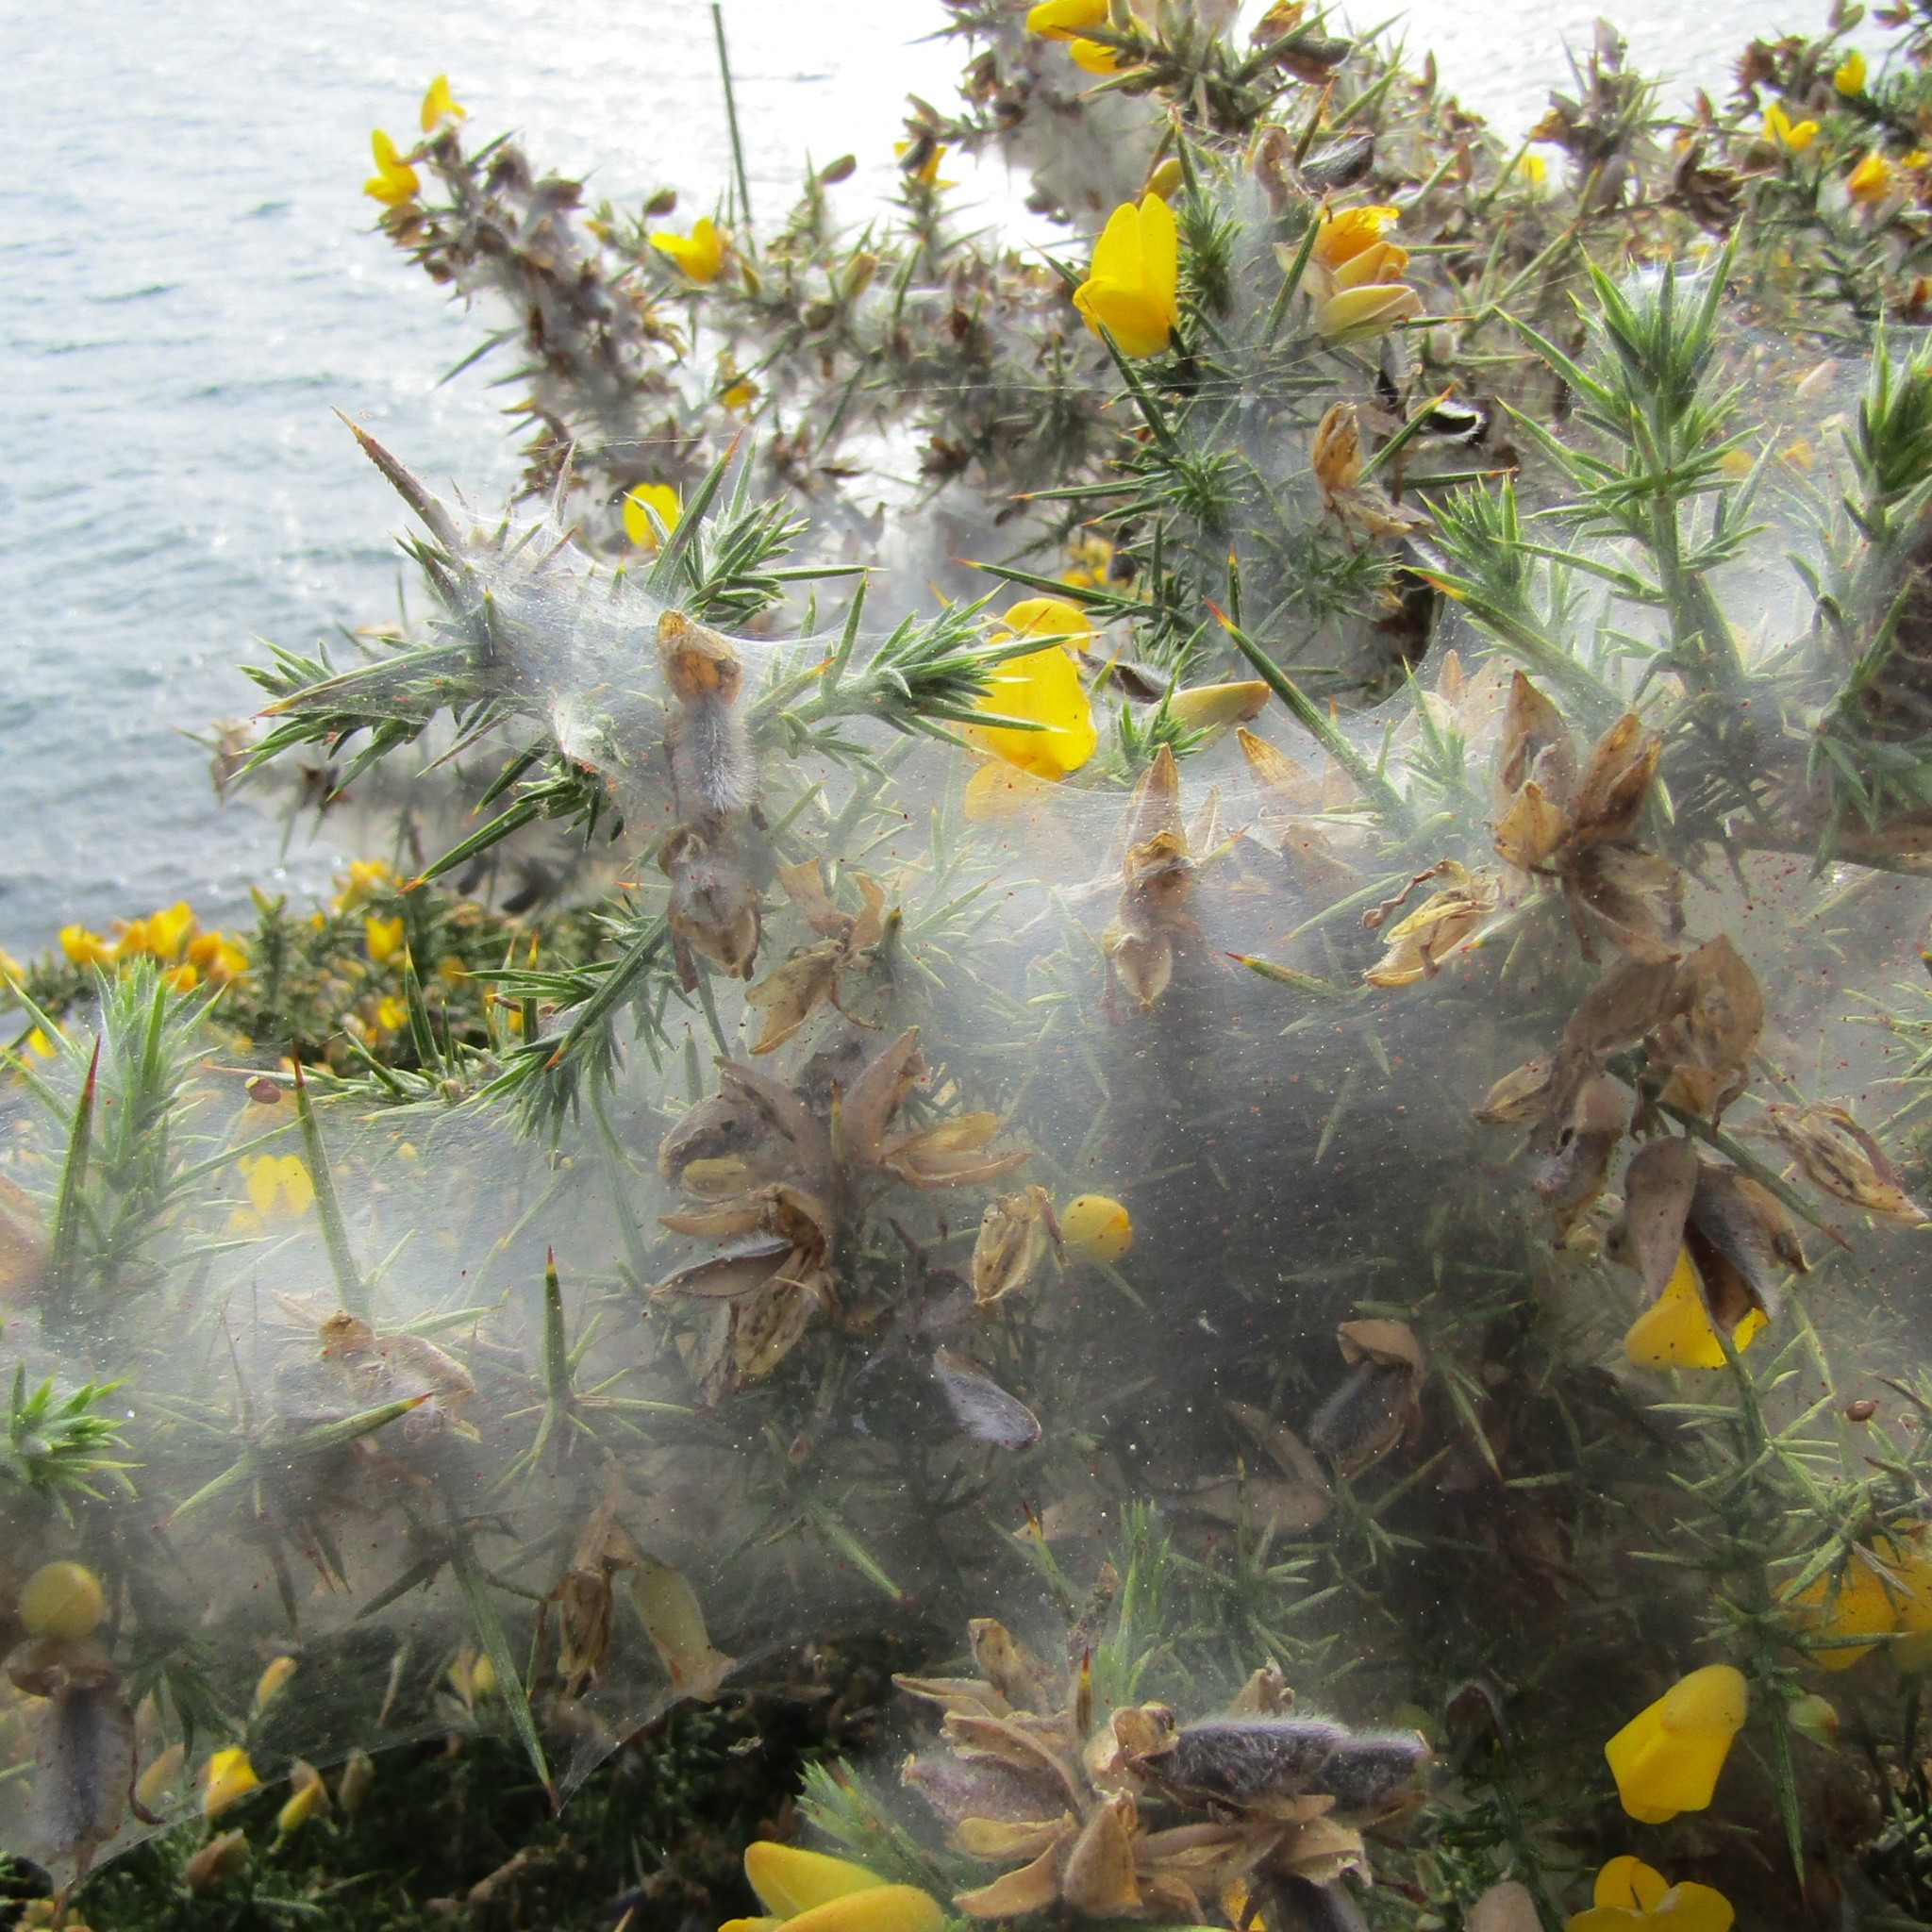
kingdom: Animalia
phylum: Arthropoda
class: Arachnida
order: Trombidiformes
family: Tetranychidae
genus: Tetranychus
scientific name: Tetranychus lintearius
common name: Gorse spider mite
